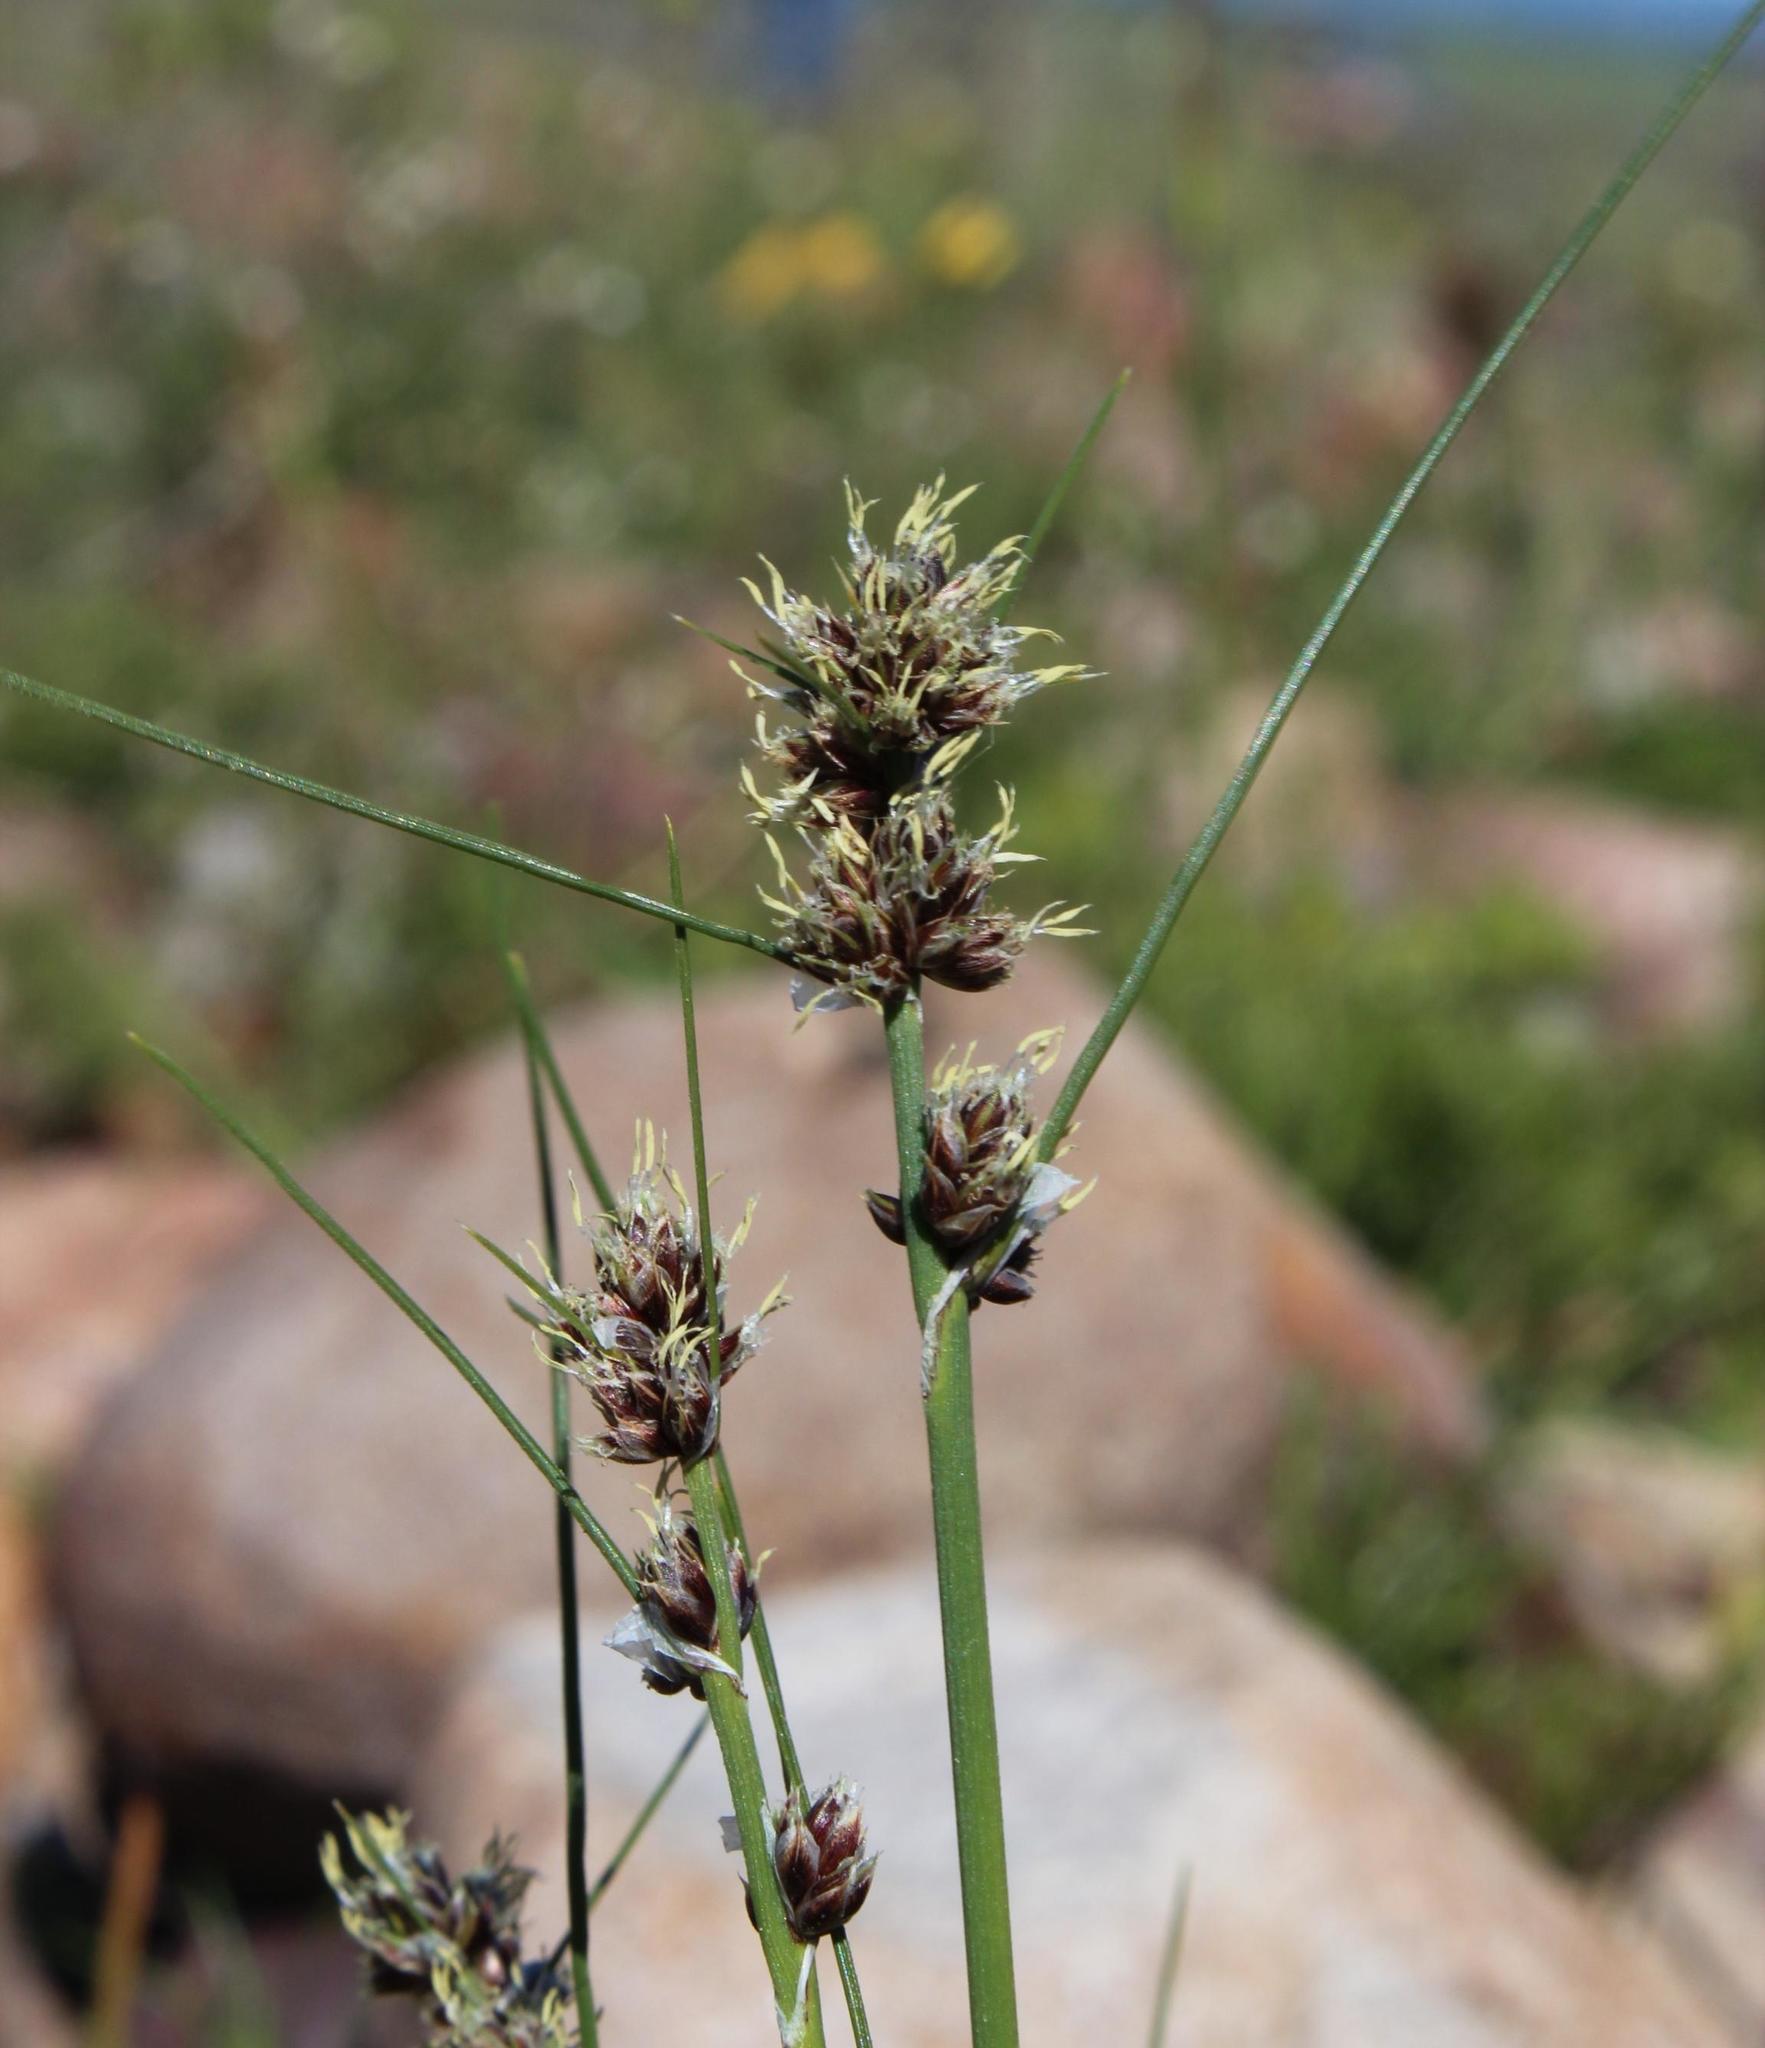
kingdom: Plantae
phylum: Tracheophyta
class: Liliopsida
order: Poales
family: Cyperaceae
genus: Ficinia
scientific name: Ficinia bulbosa
